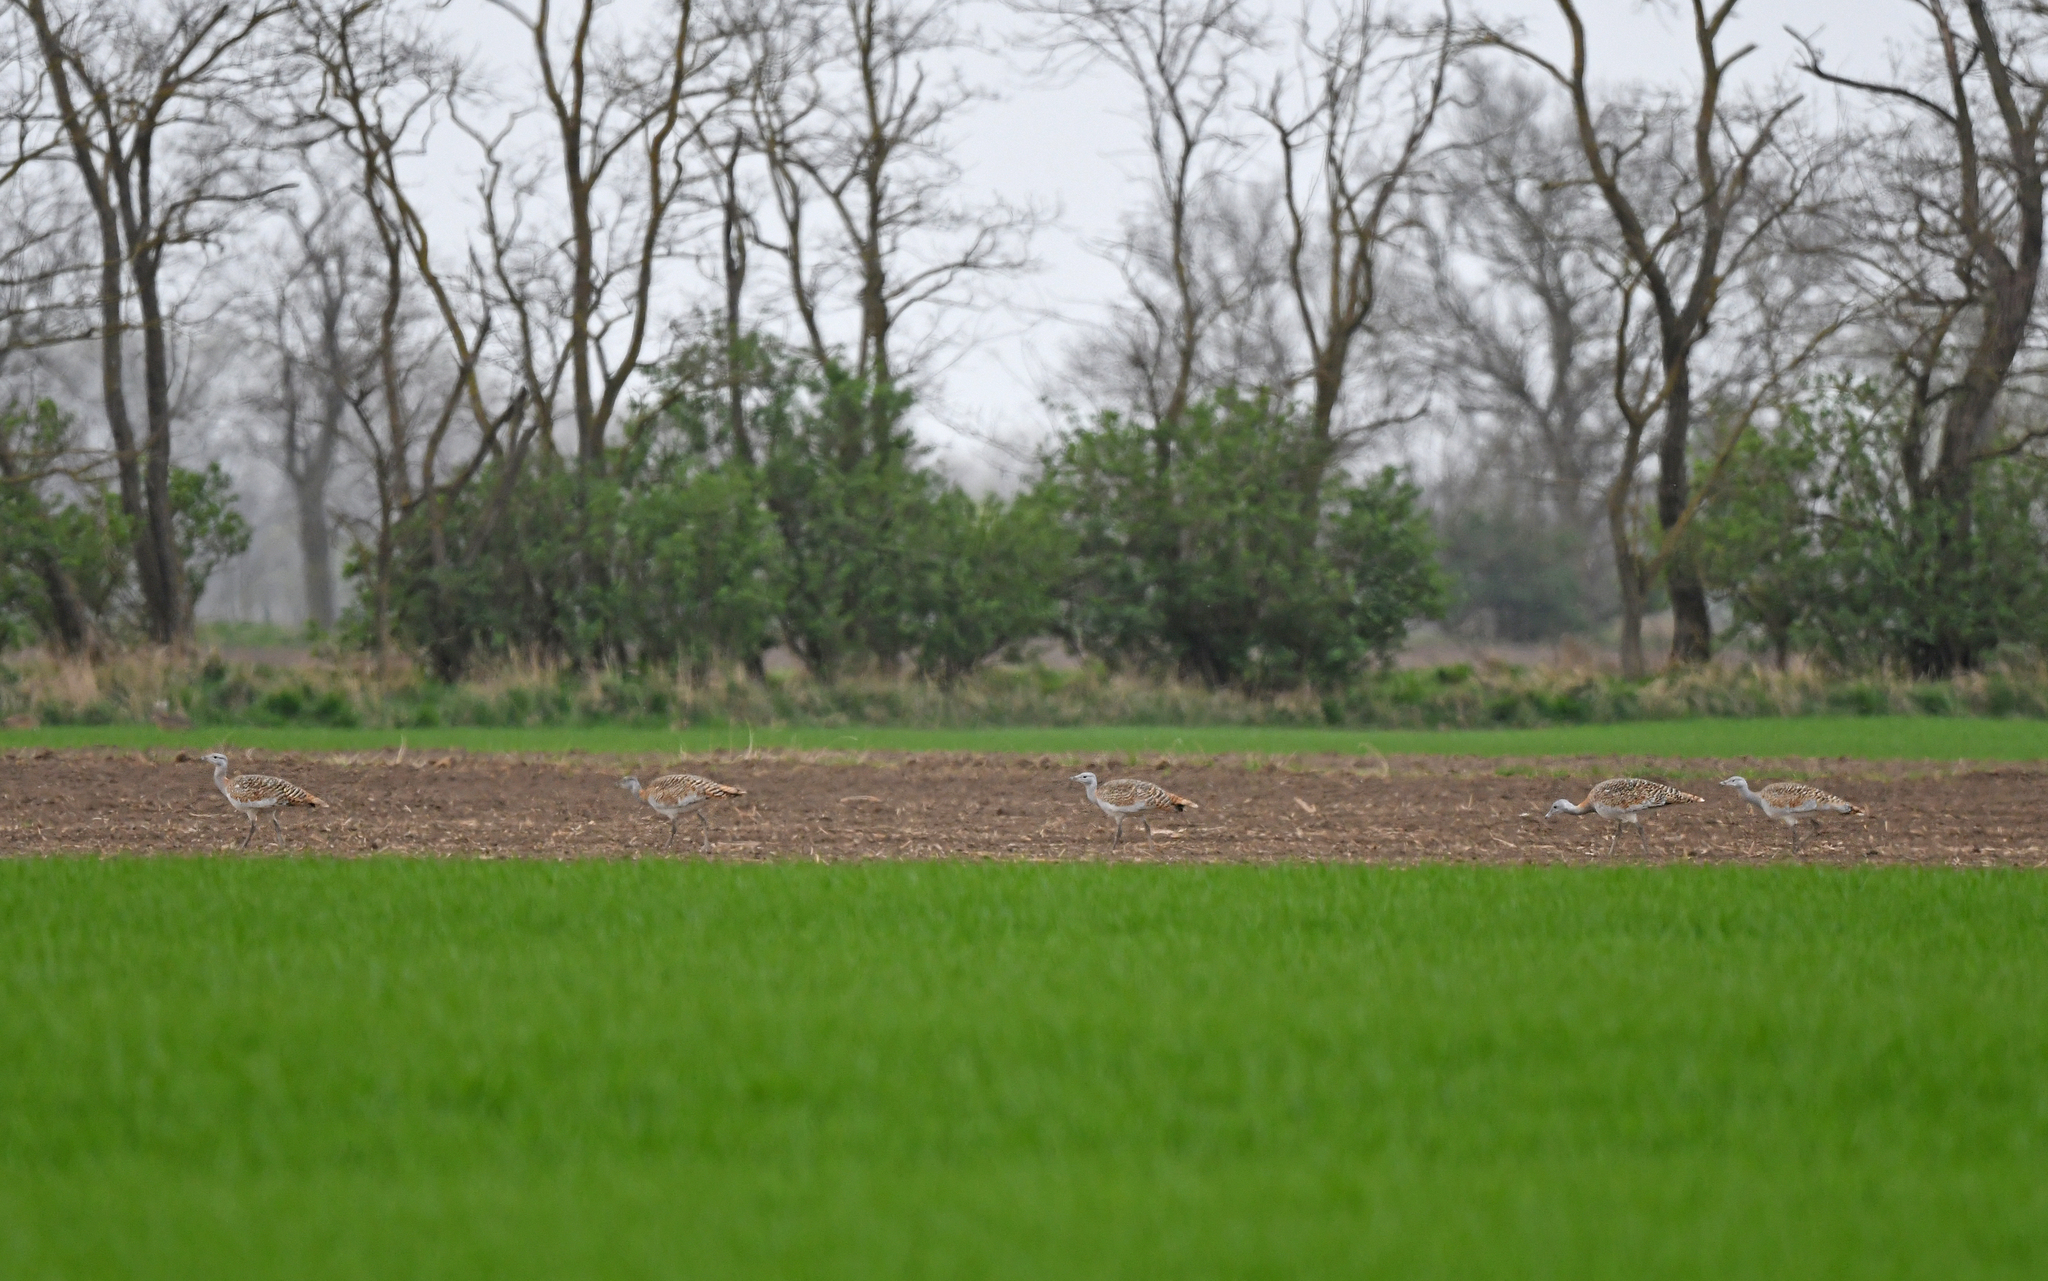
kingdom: Animalia
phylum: Chordata
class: Aves
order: Otidiformes
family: Otididae
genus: Otis
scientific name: Otis tarda
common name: Great bustard
